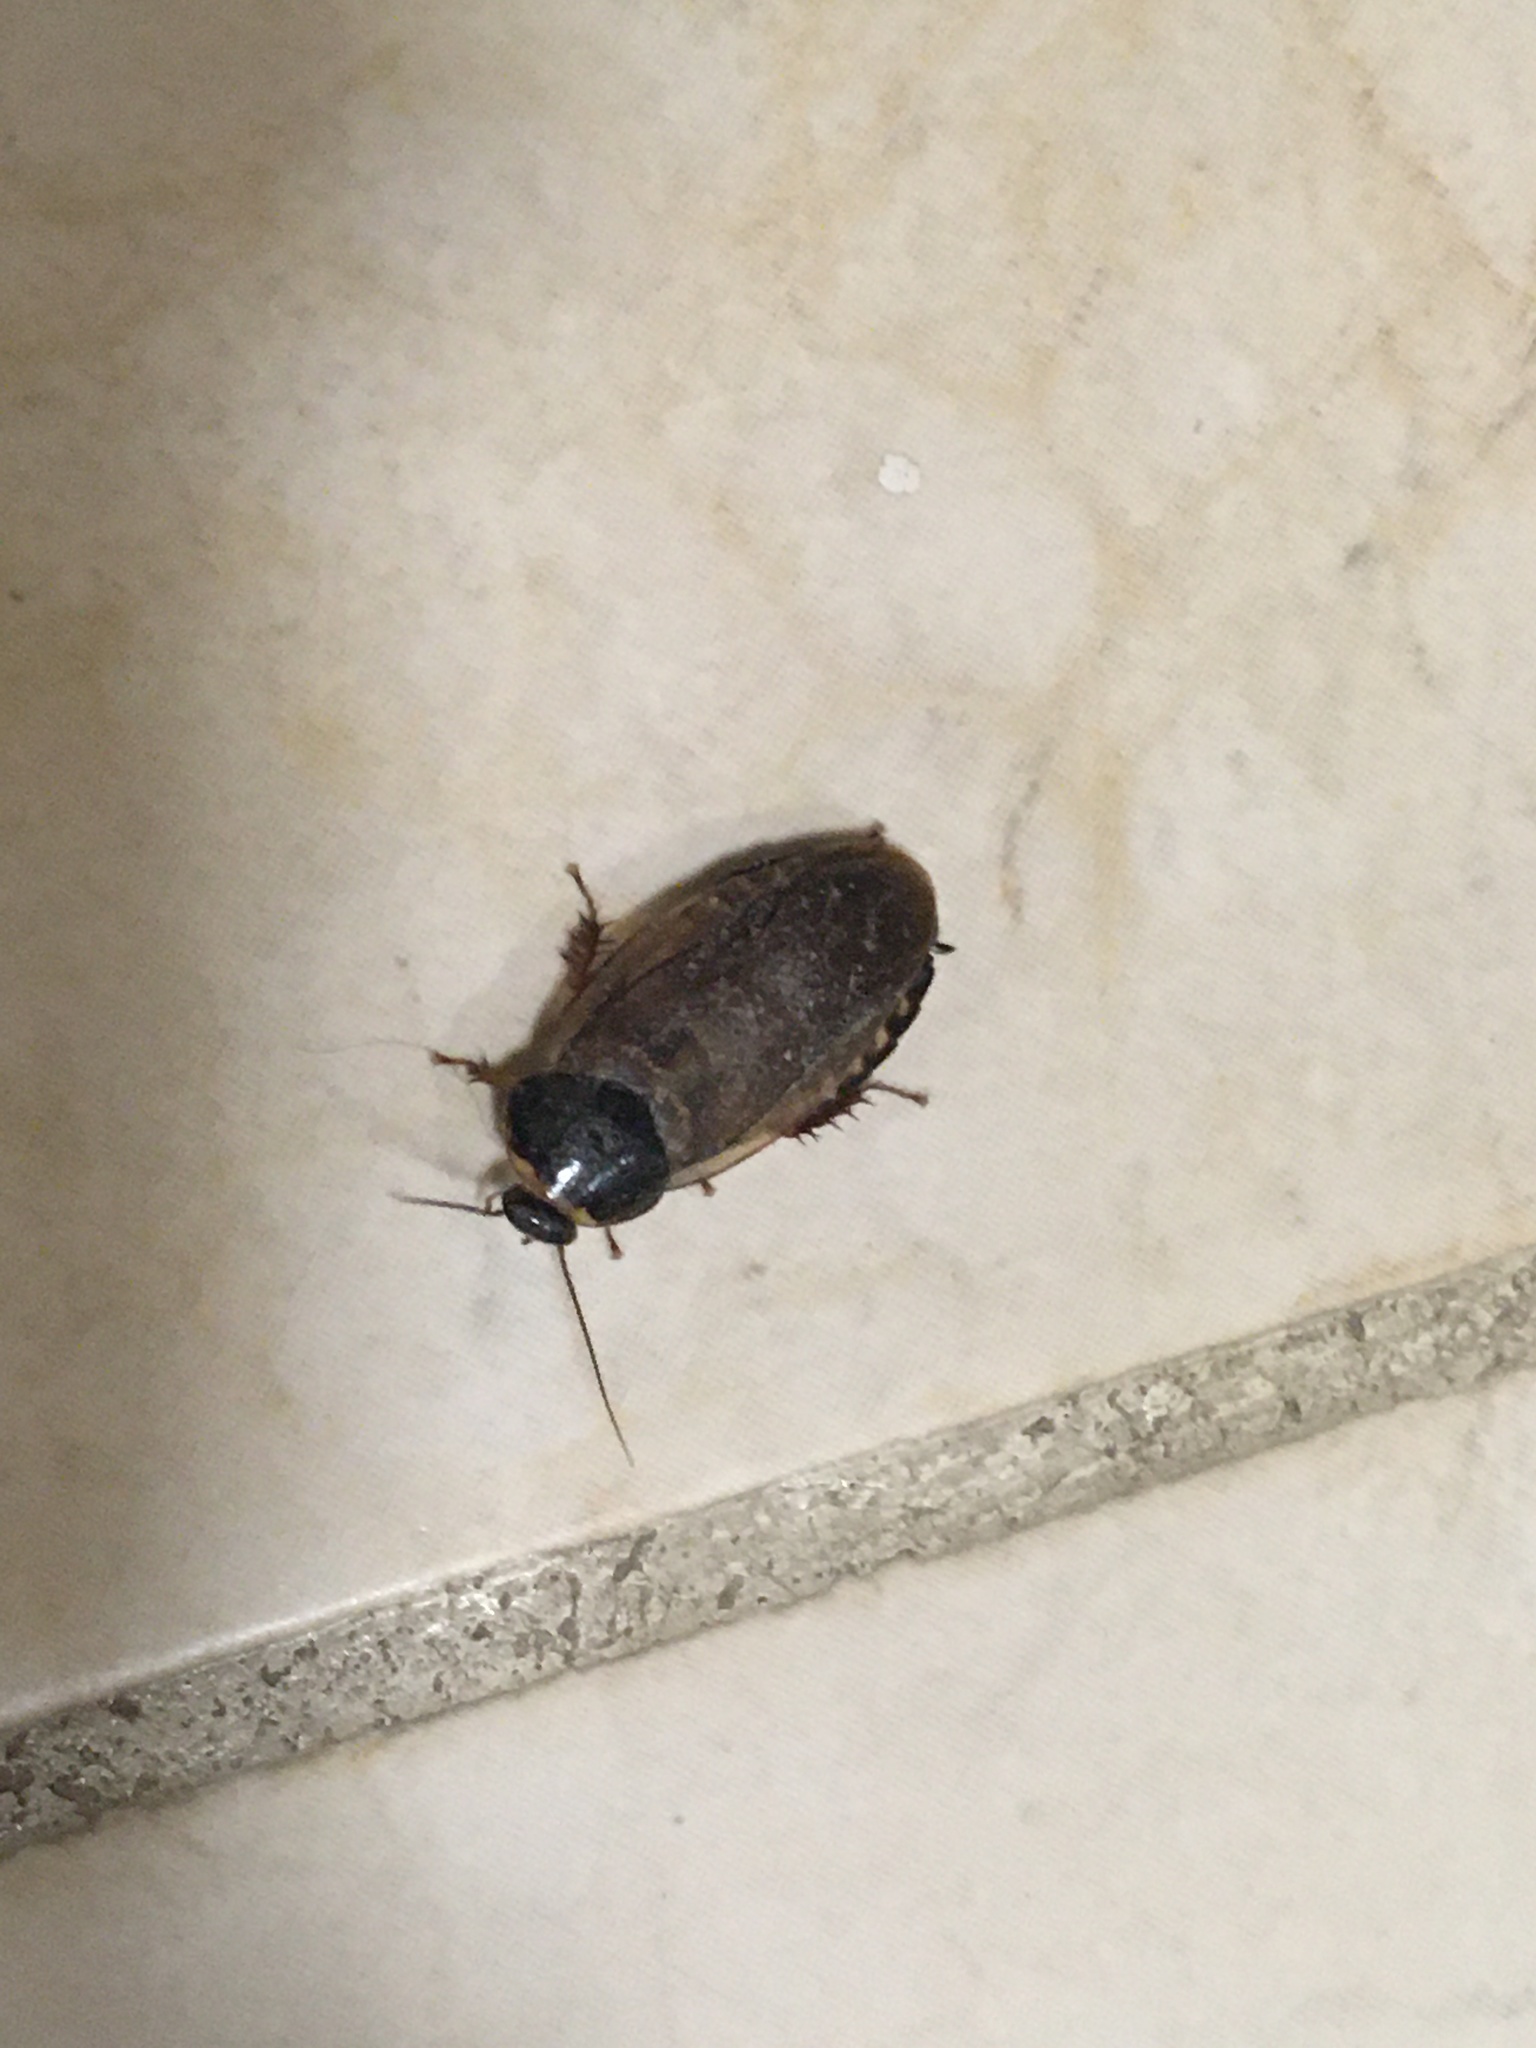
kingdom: Animalia
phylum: Arthropoda
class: Insecta
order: Blattodea
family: Blaberidae
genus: Pycnoscelus
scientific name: Pycnoscelus surinamensis
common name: Surinam cockroach
